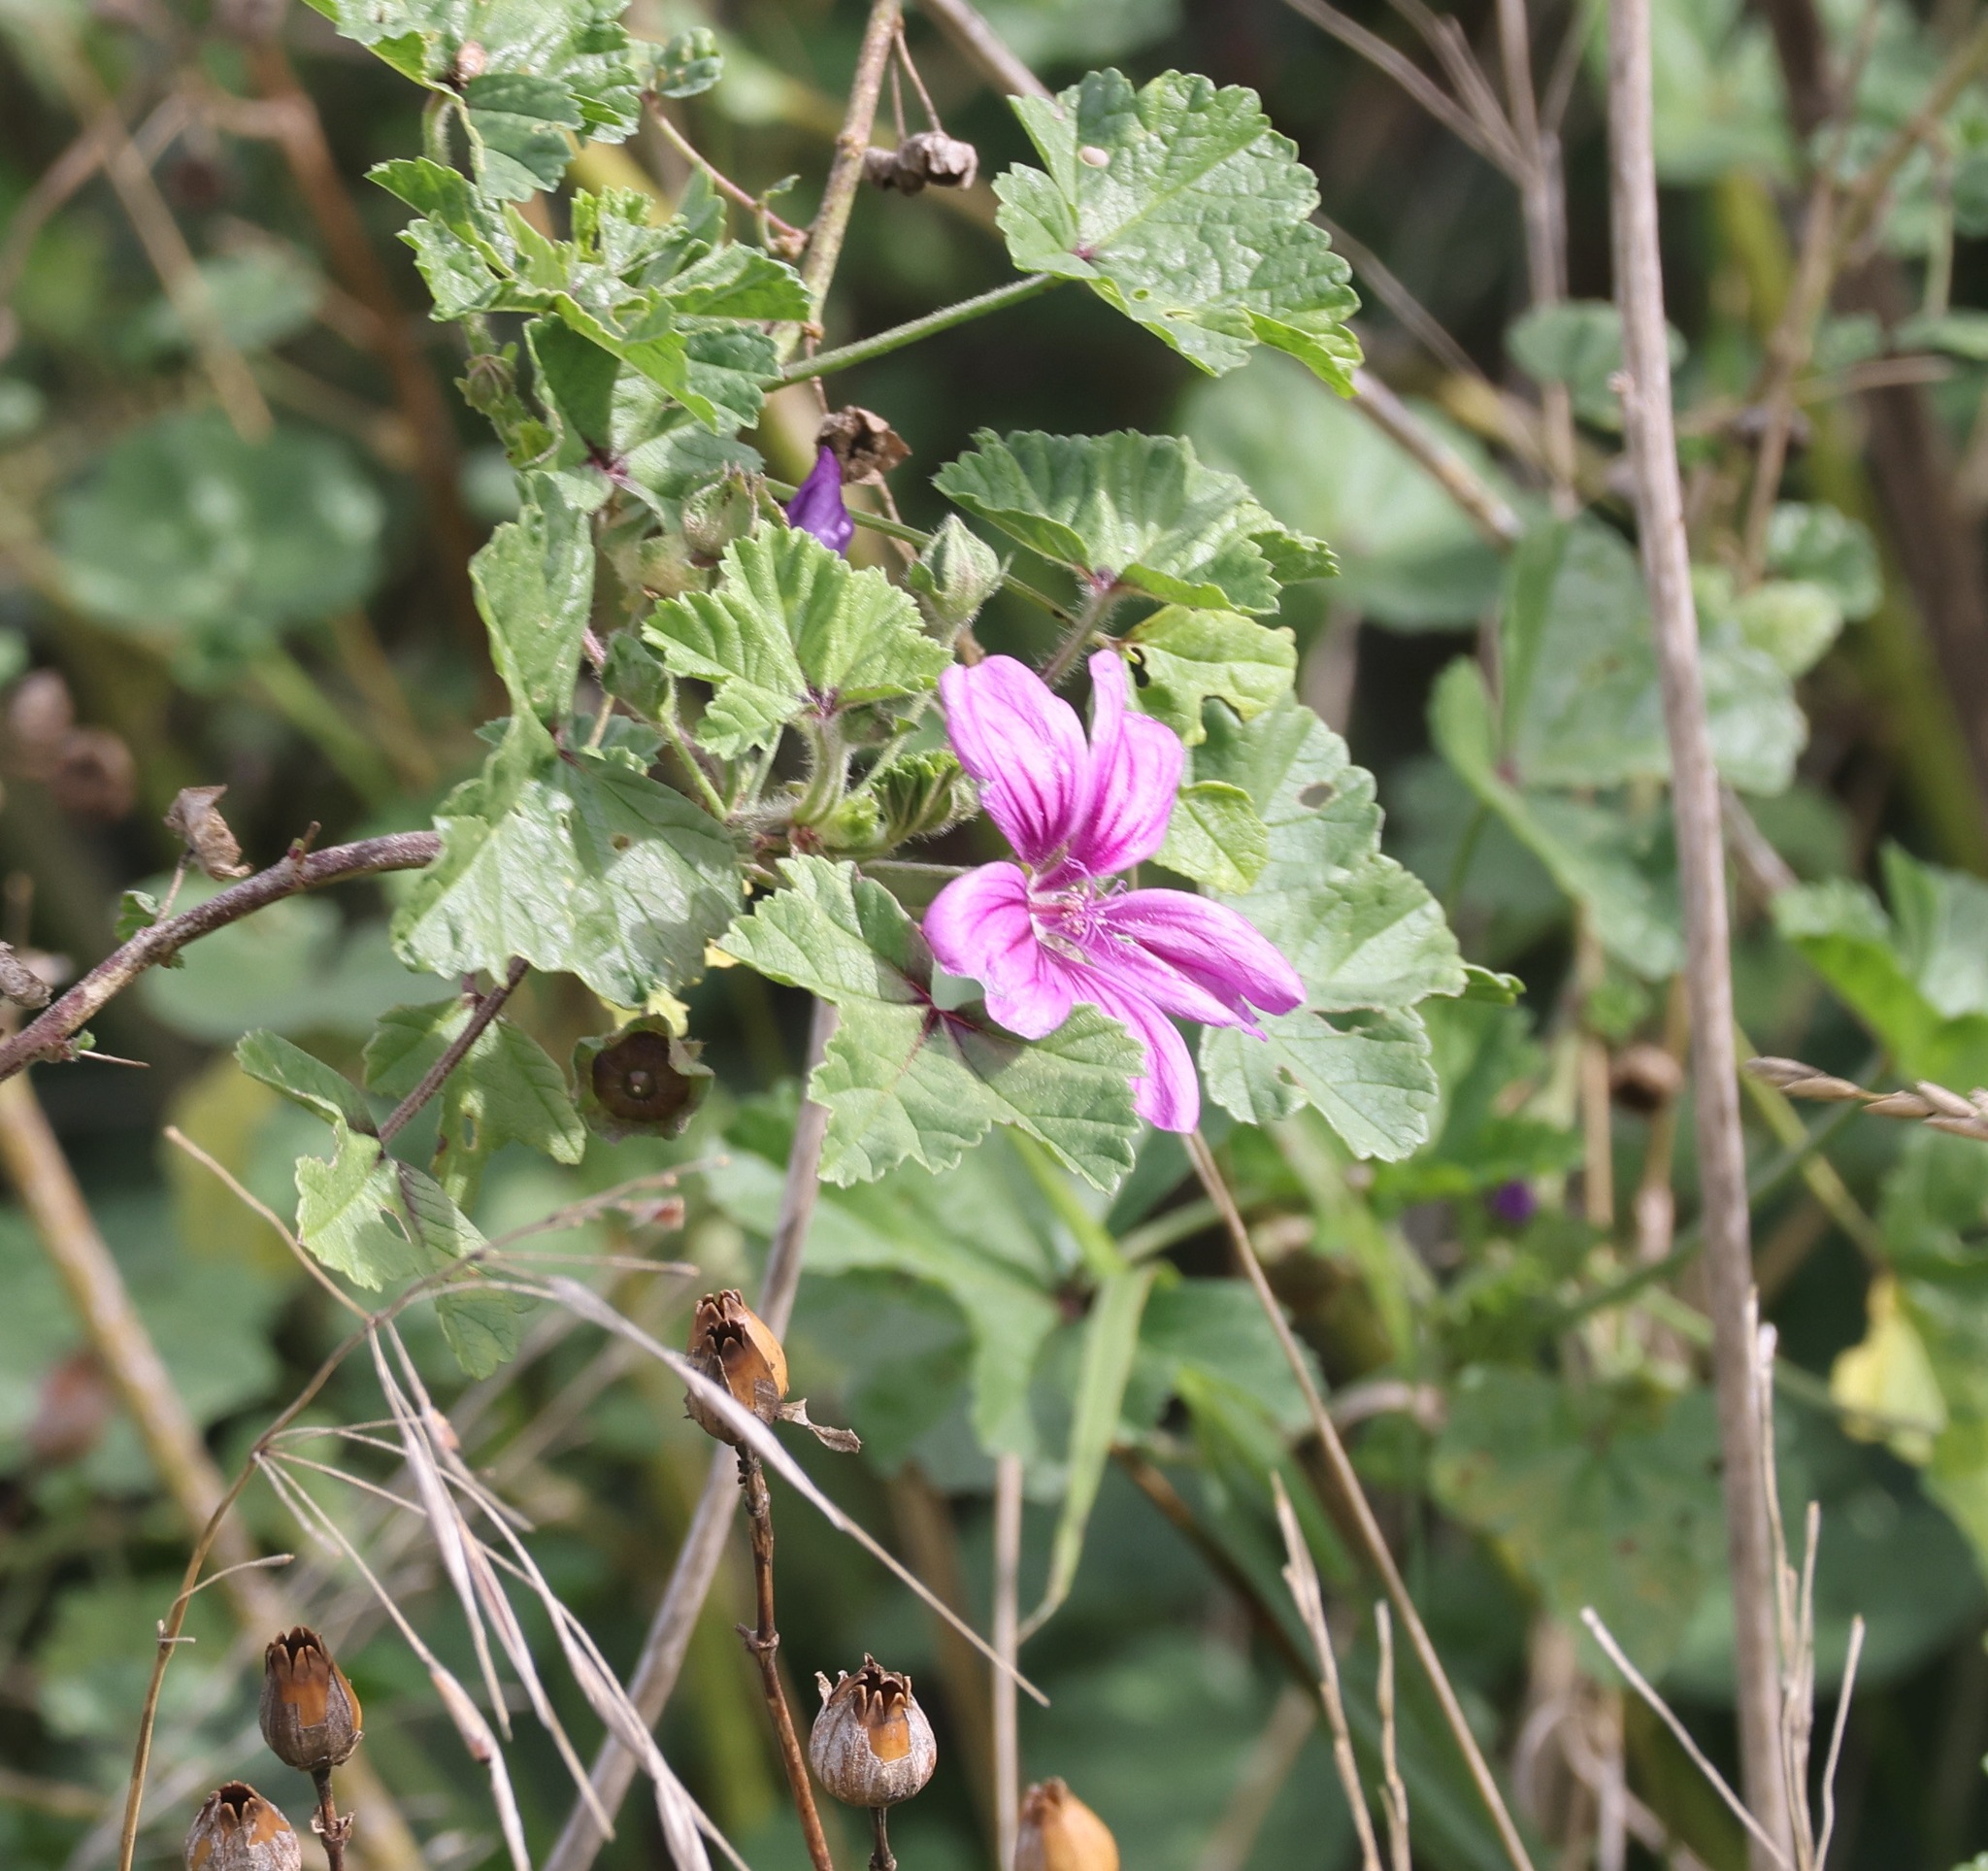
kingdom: Plantae
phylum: Tracheophyta
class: Magnoliopsida
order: Malvales
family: Malvaceae
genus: Malva
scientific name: Malva sylvestris
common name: Common mallow
